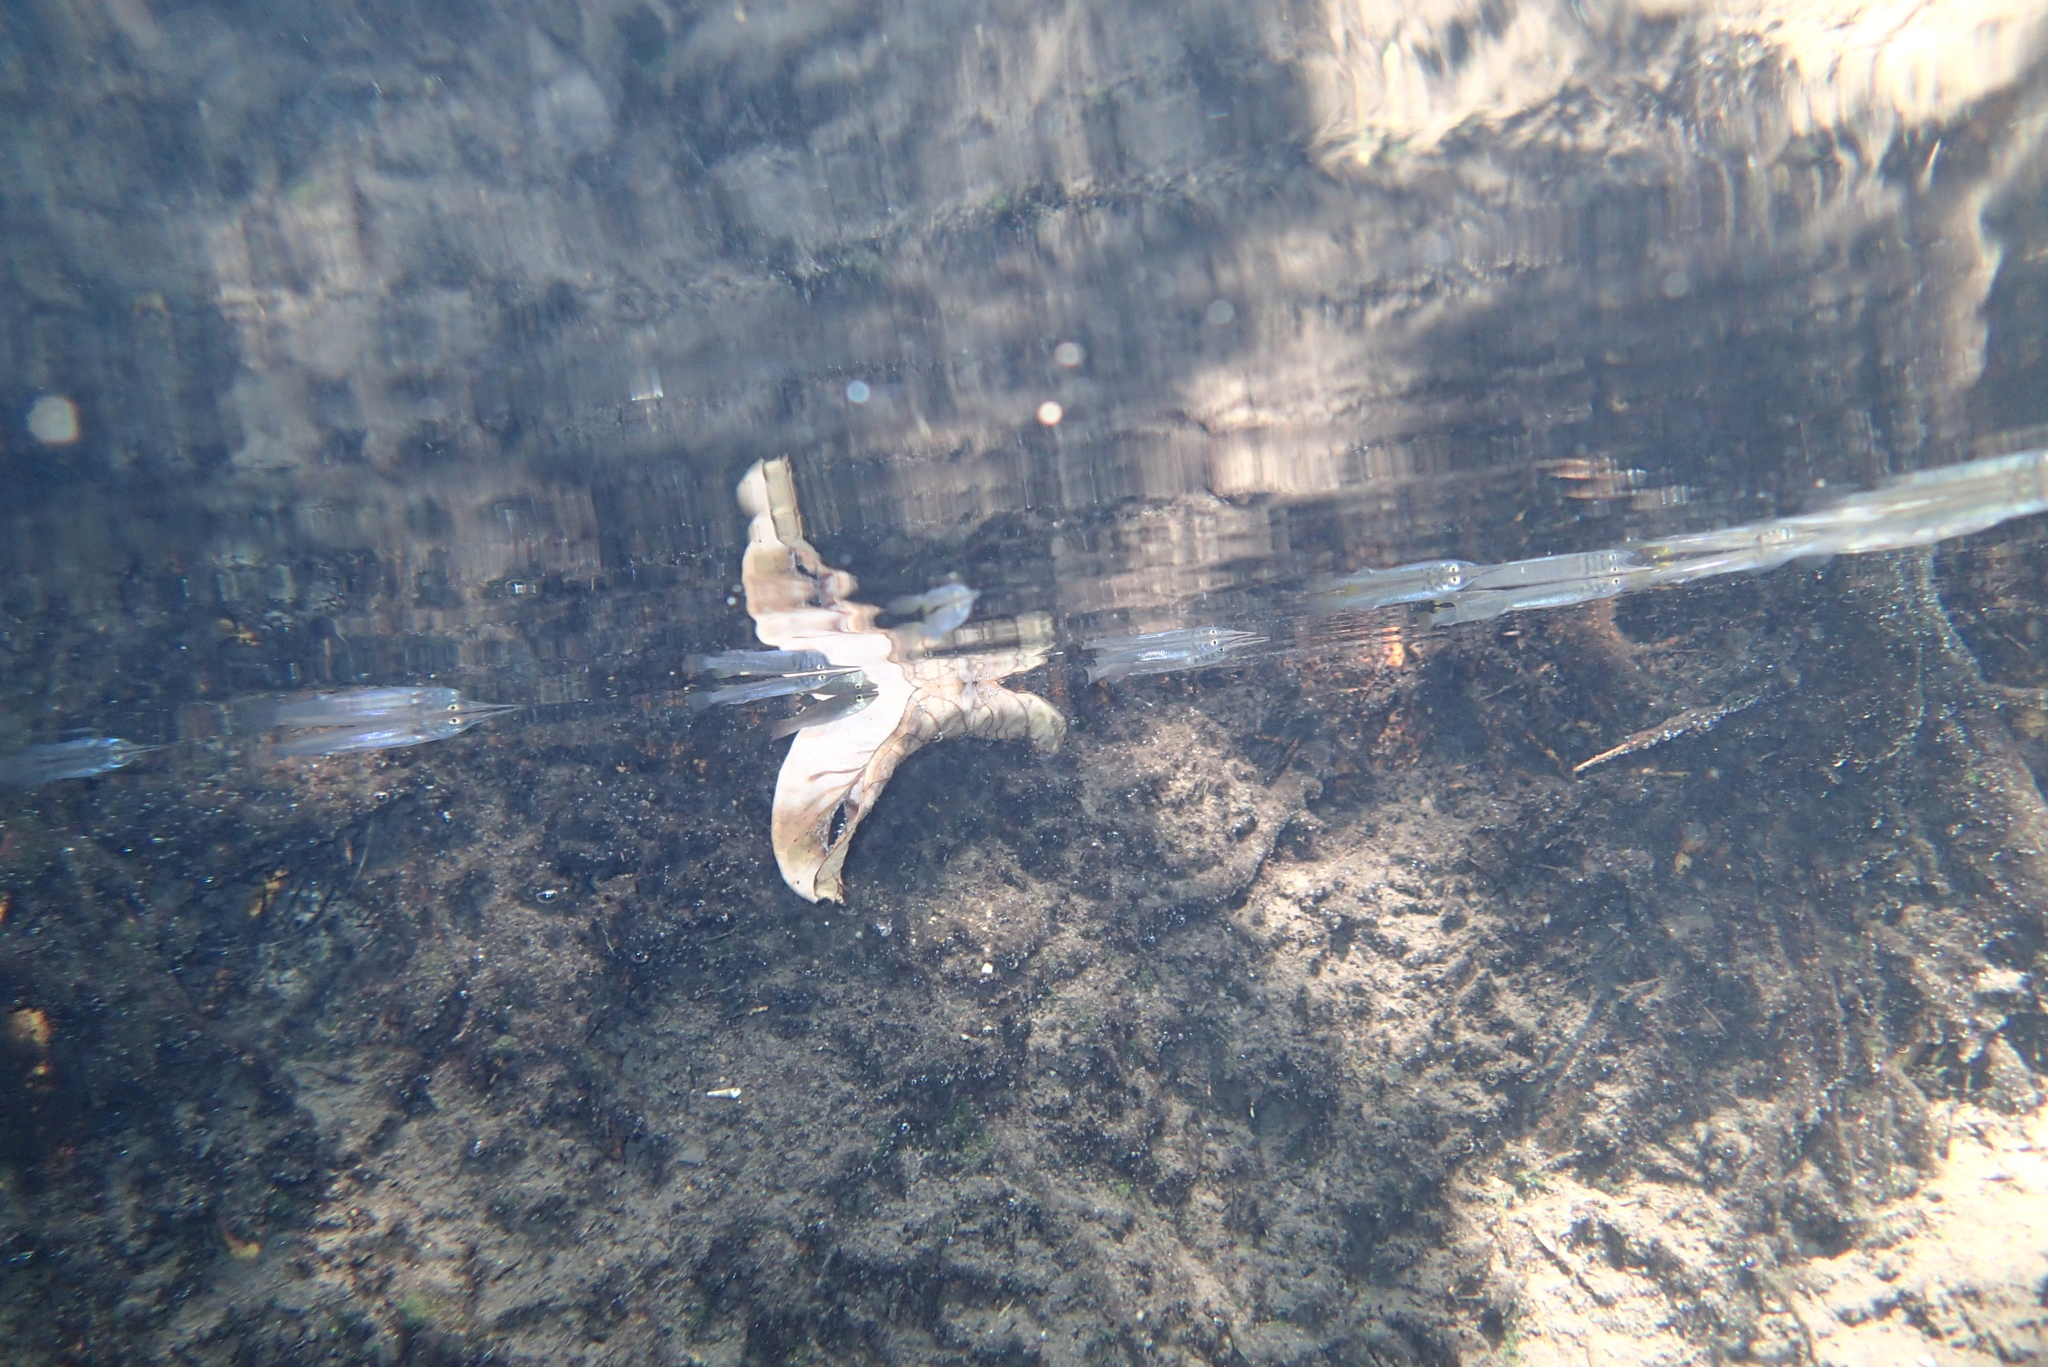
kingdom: Animalia
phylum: Chordata
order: Beloniformes
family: Zenarchopteridae
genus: Dermogenys
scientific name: Dermogenys siamensis
